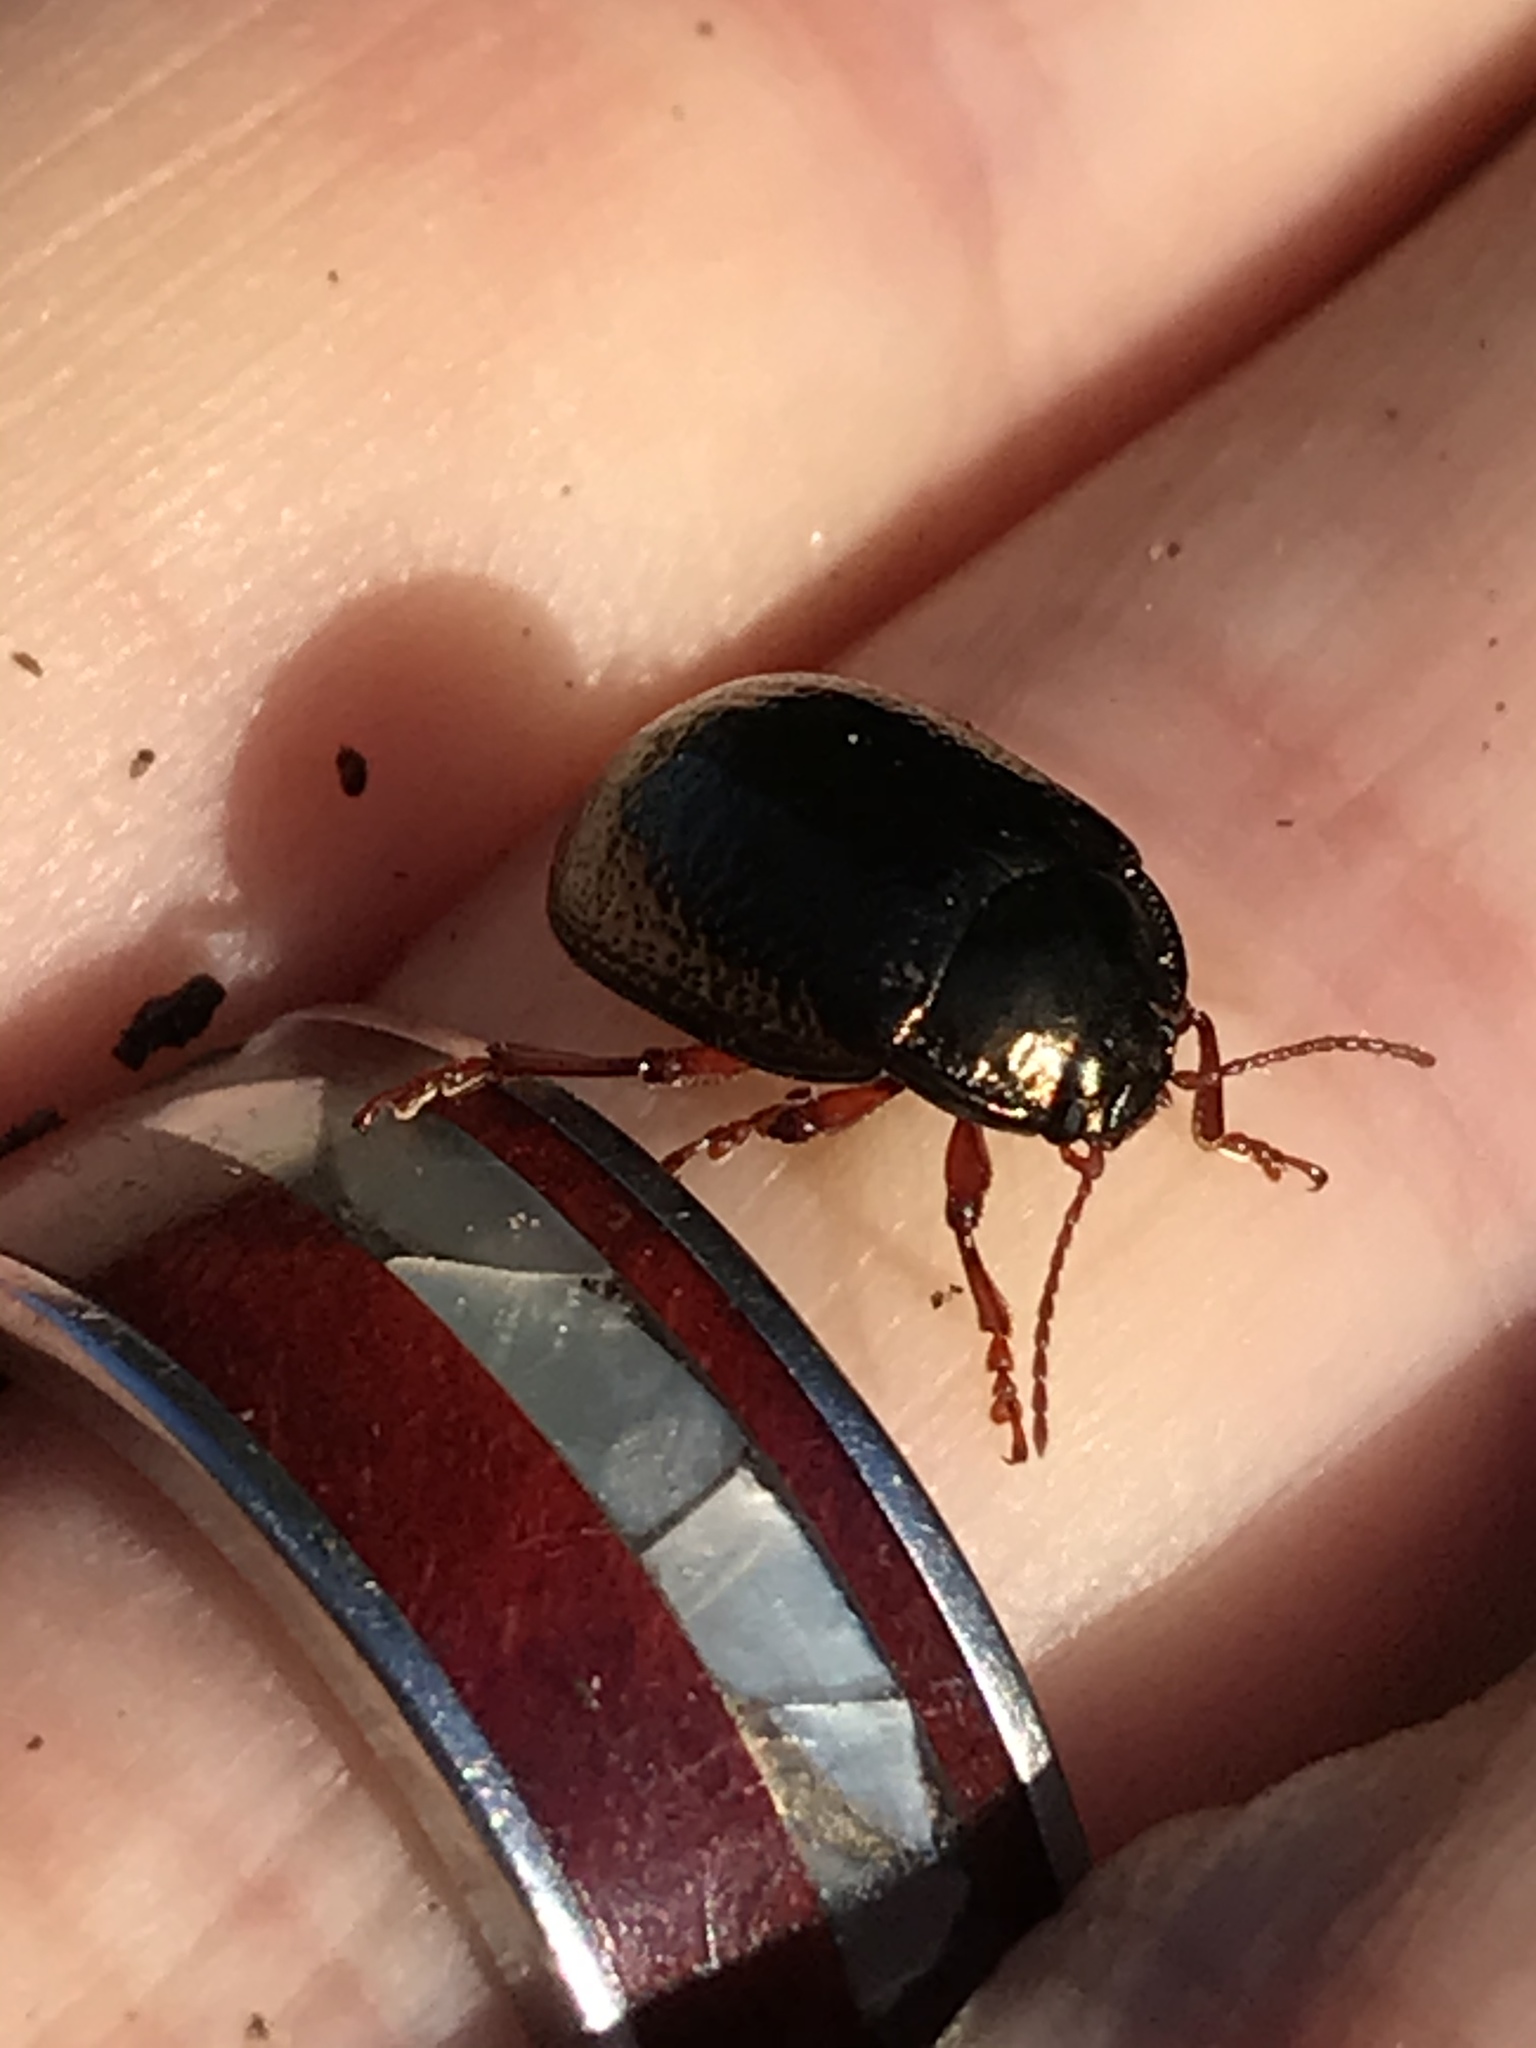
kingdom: Animalia
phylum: Arthropoda
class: Insecta
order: Coleoptera
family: Chrysomelidae
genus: Chrysolina
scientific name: Chrysolina bankii
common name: Leaf beetle
